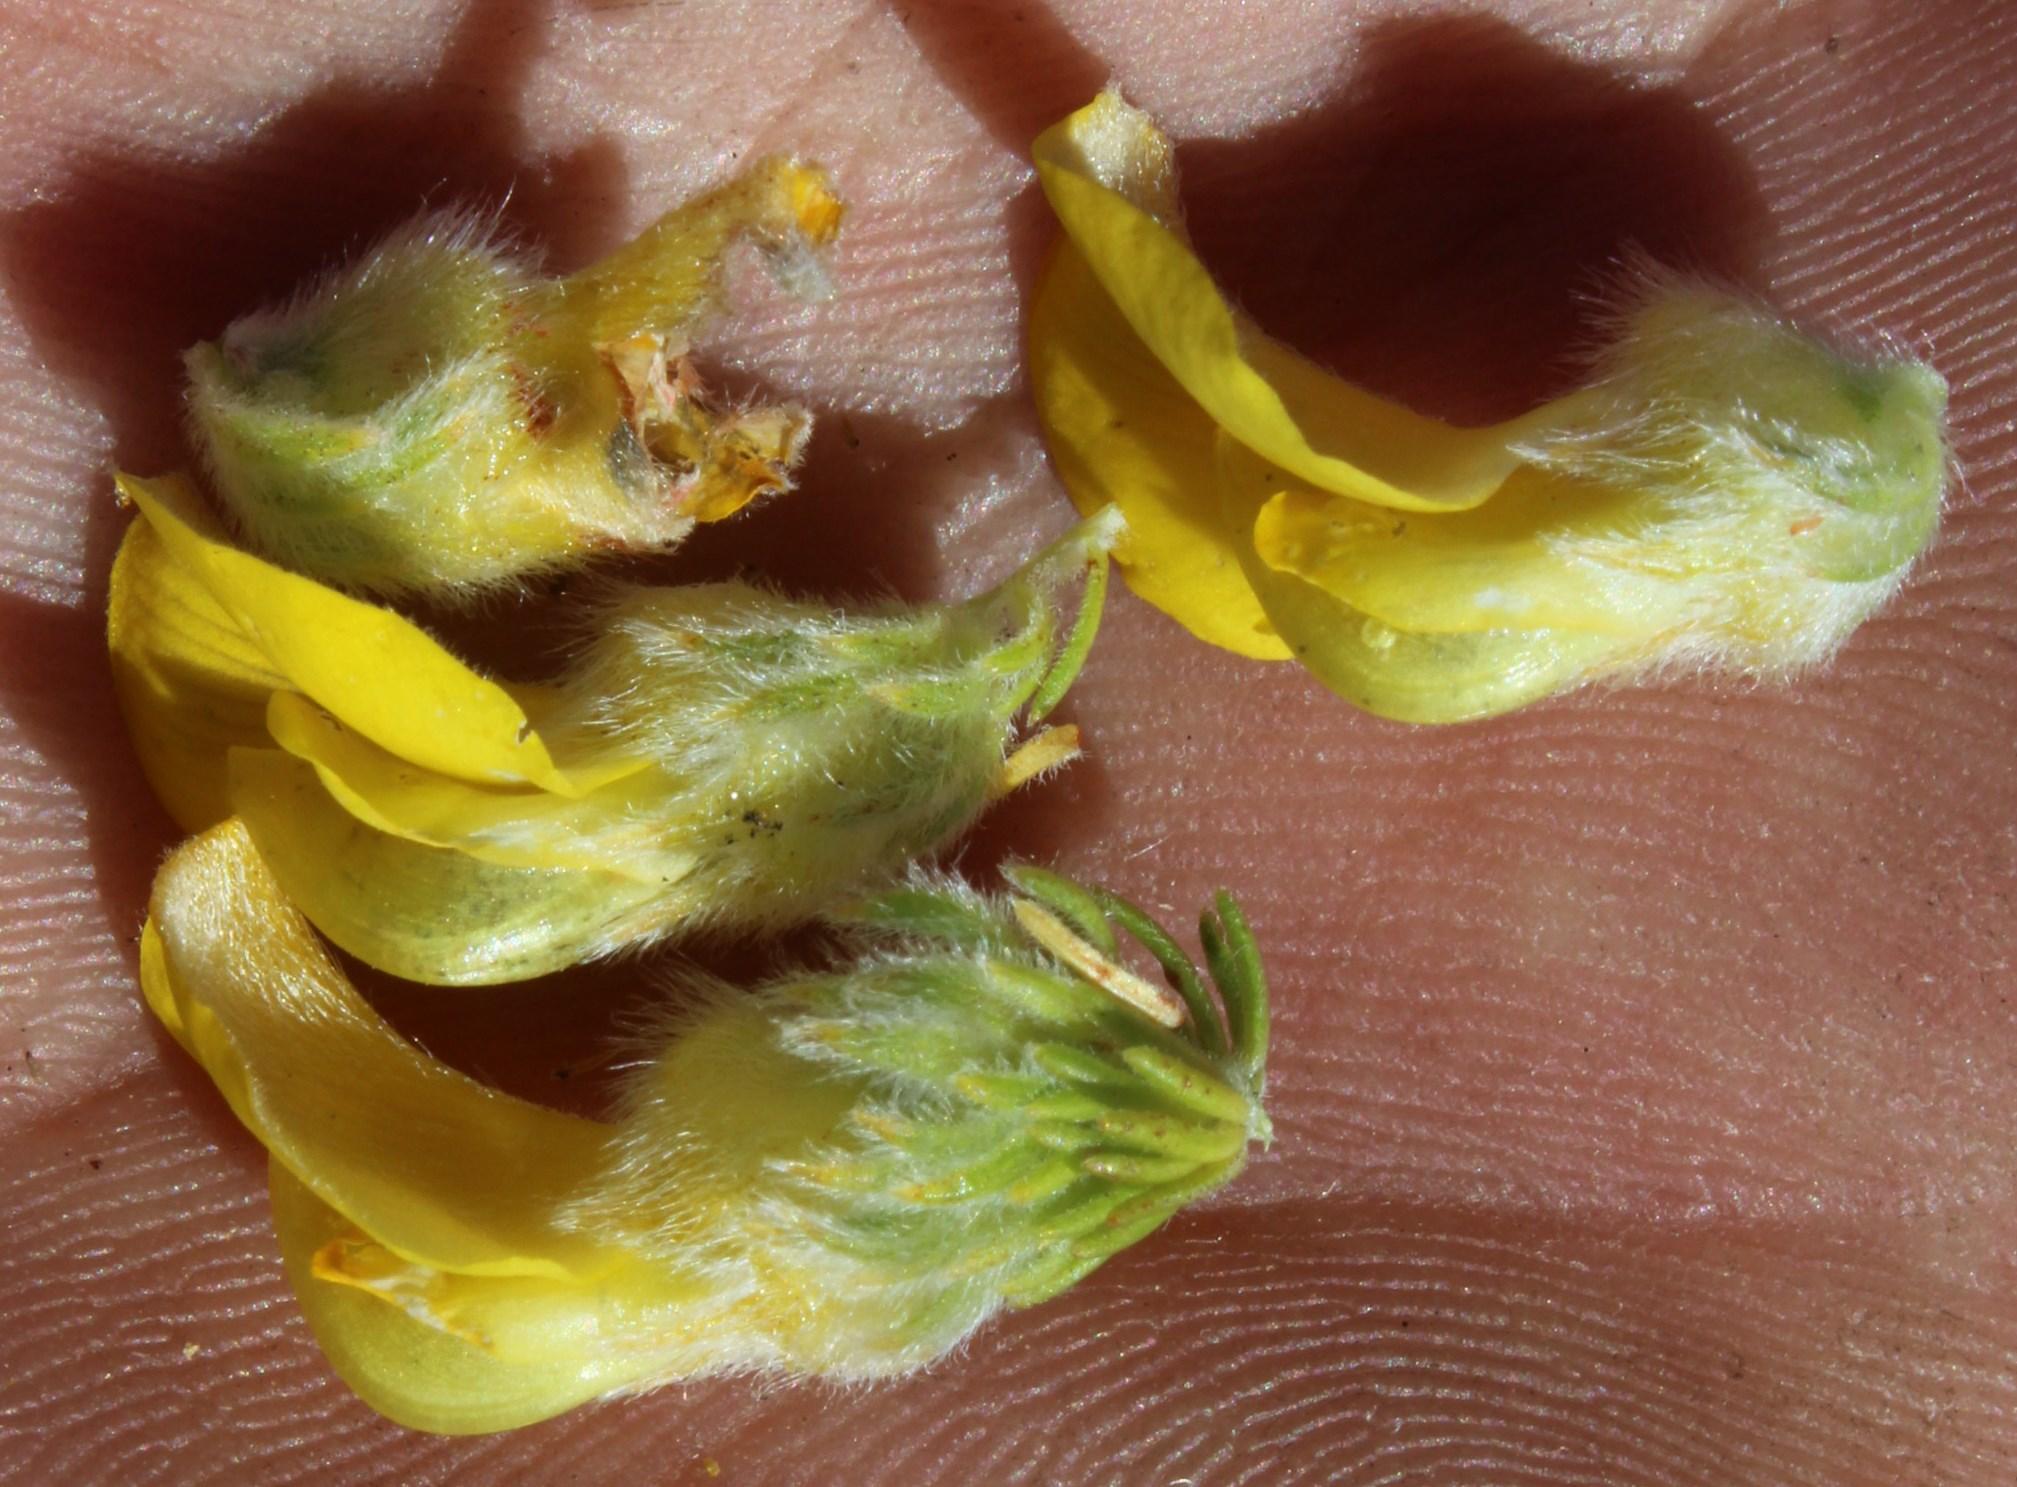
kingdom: Plantae
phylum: Tracheophyta
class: Magnoliopsida
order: Fabales
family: Fabaceae
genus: Aspalathus
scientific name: Aspalathus triquetra
